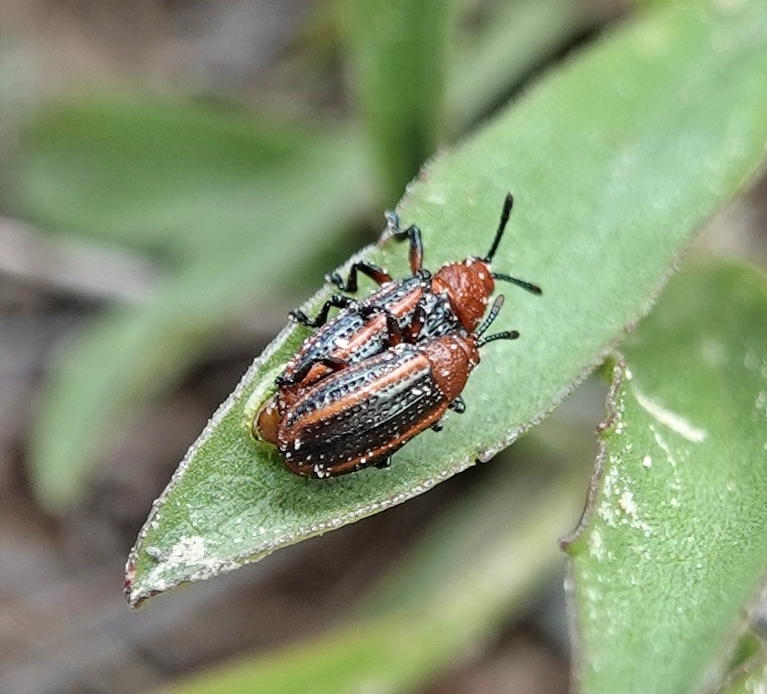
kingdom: Animalia
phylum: Arthropoda
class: Insecta
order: Coleoptera
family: Chrysomelidae
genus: Microrhopala
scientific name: Microrhopala vittata
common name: Goldenrod leaf miner beetle
